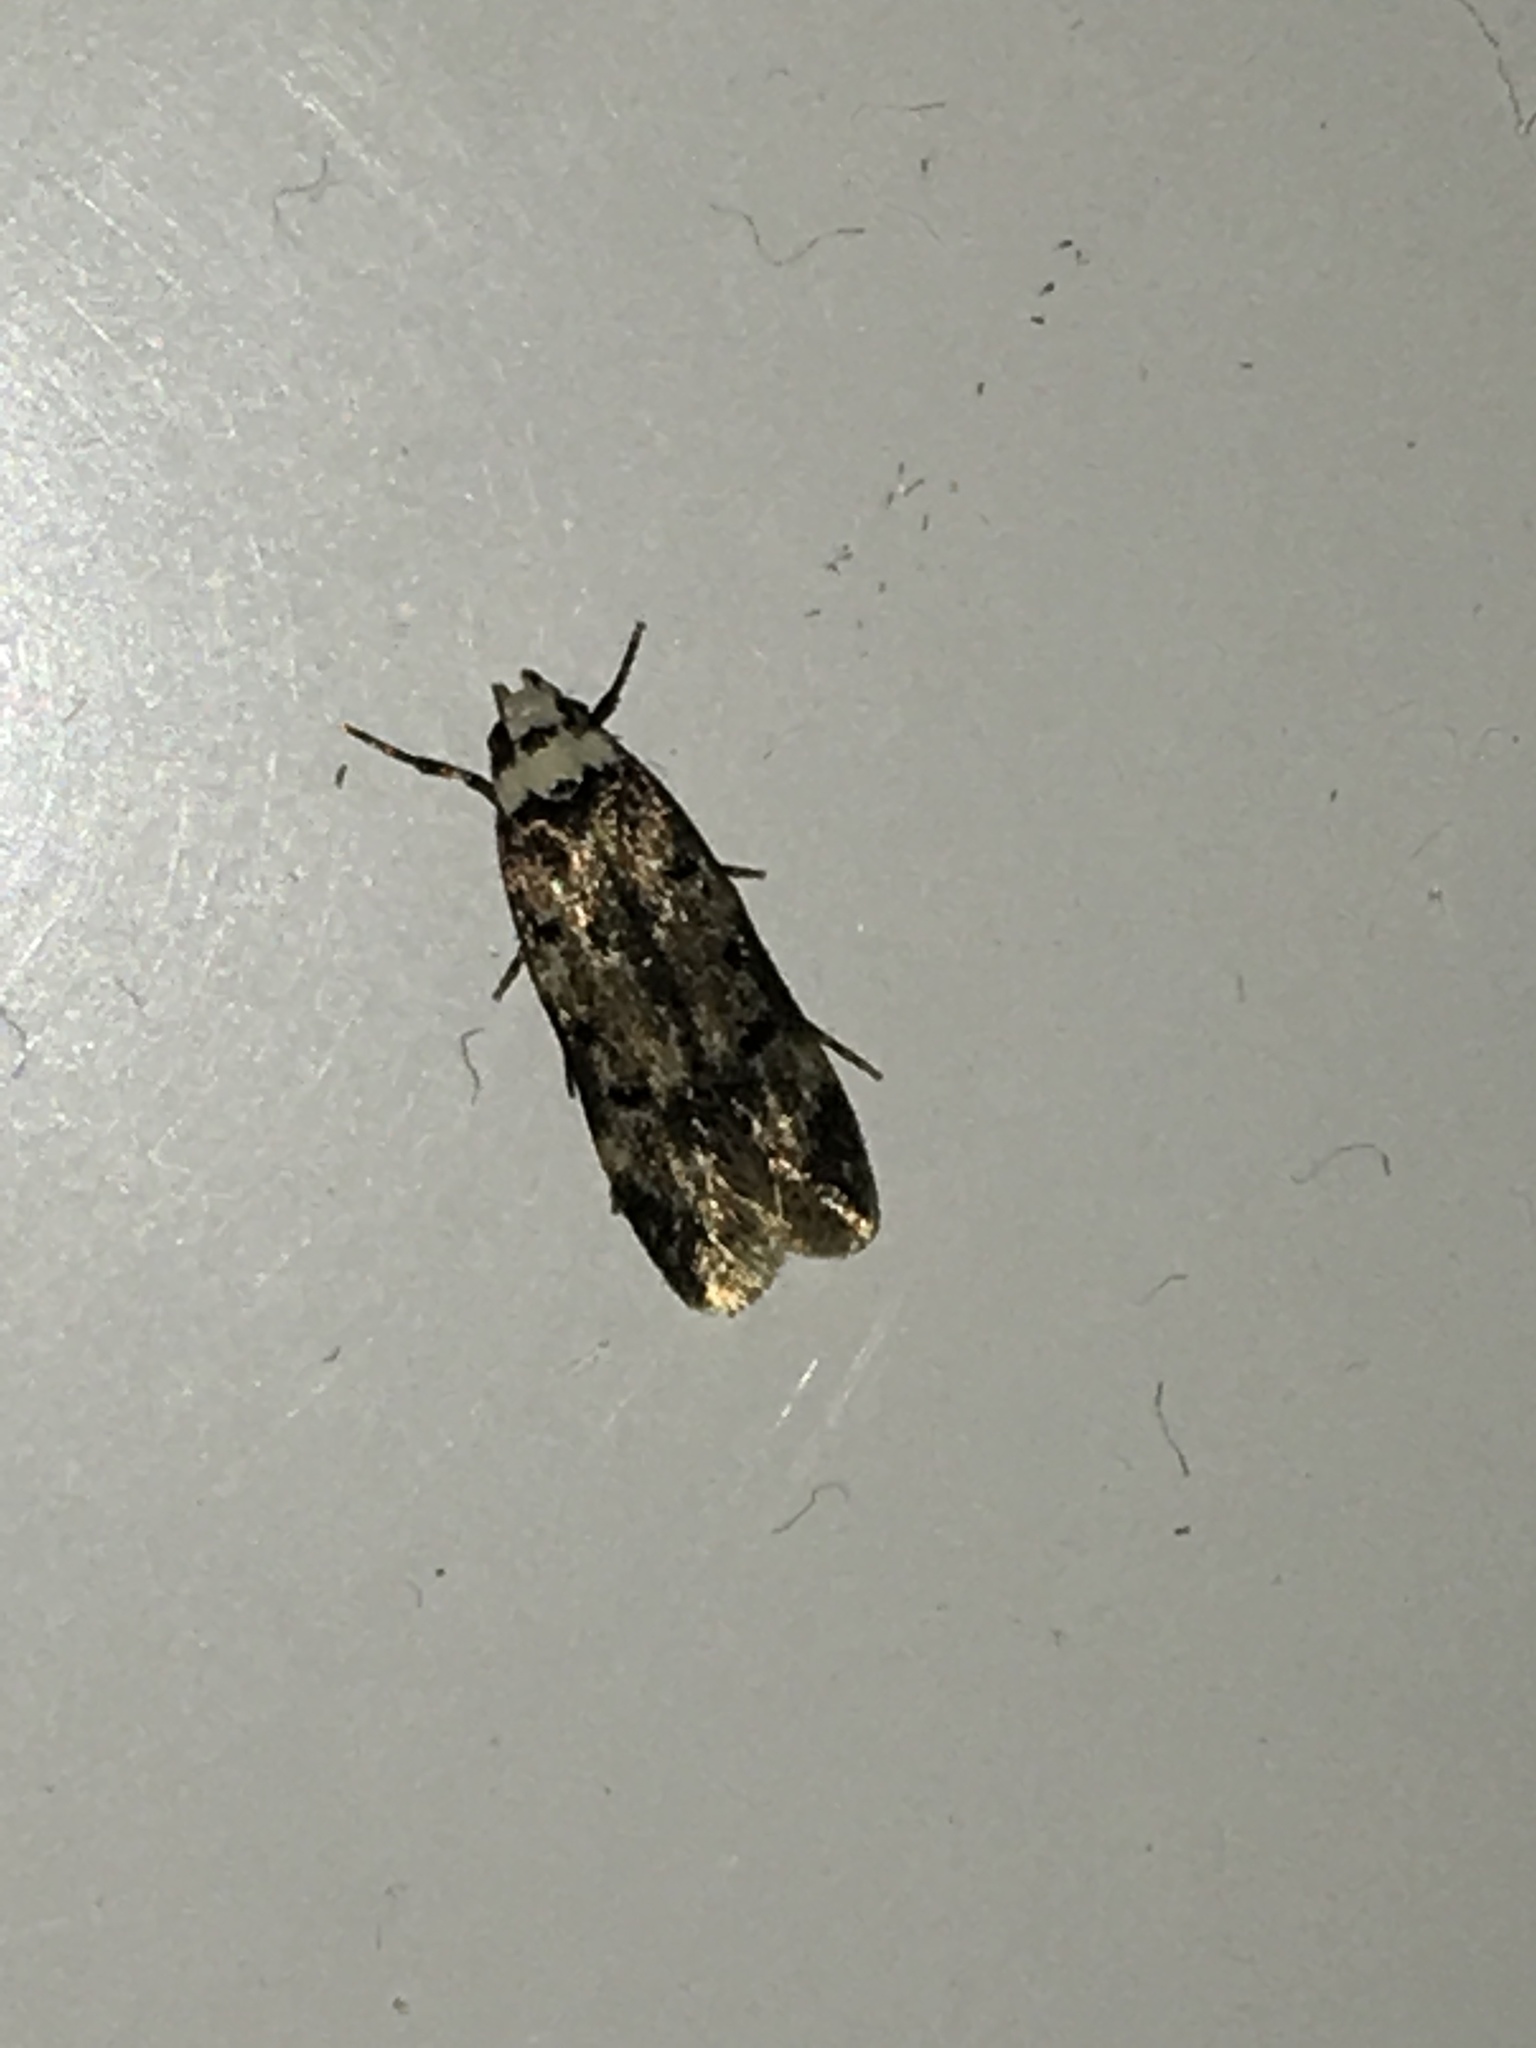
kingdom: Animalia
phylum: Arthropoda
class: Insecta
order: Lepidoptera
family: Oecophoridae
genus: Endrosis
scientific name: Endrosis sarcitrella
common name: White-shouldered house moth
